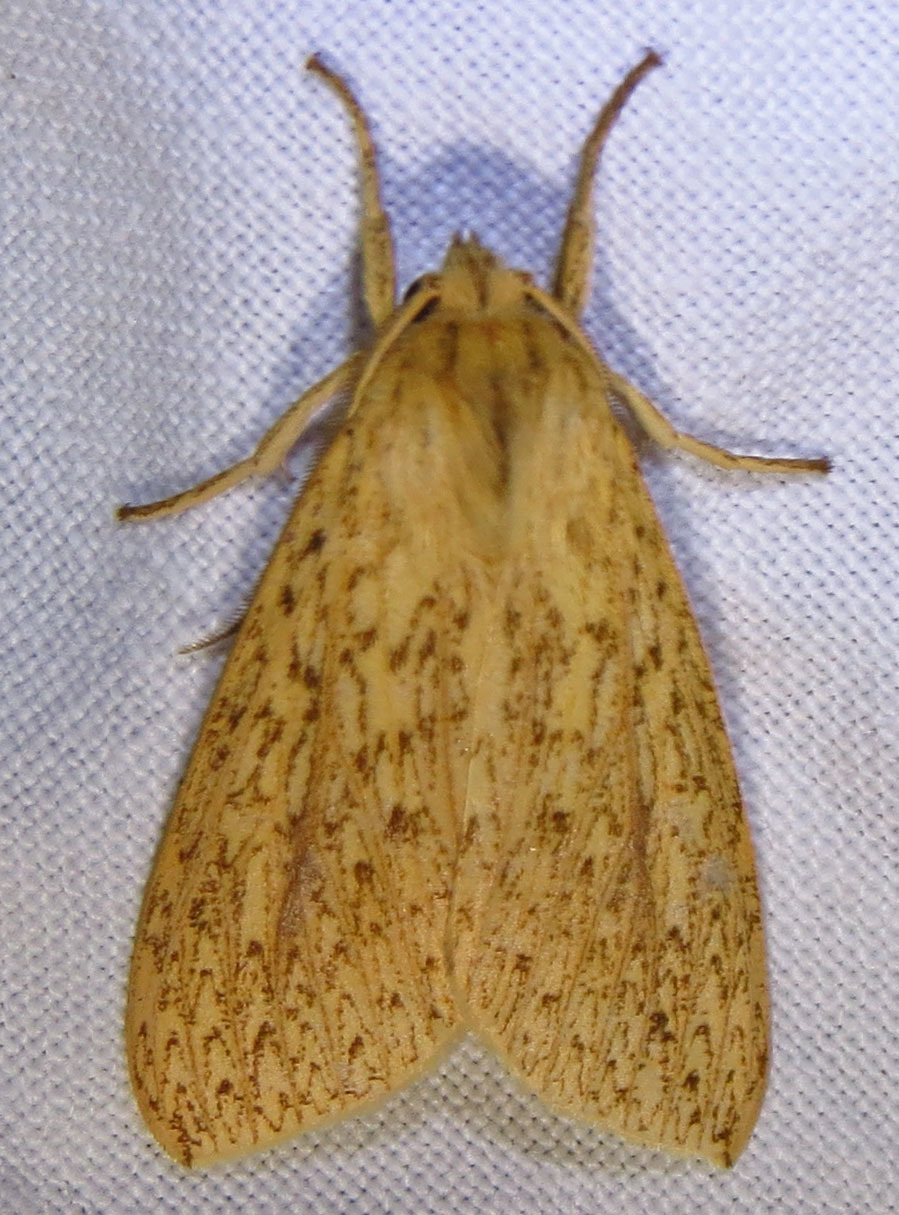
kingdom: Animalia
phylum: Arthropoda
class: Insecta
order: Lepidoptera
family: Erebidae
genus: Leucanopsis
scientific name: Leucanopsis longa
